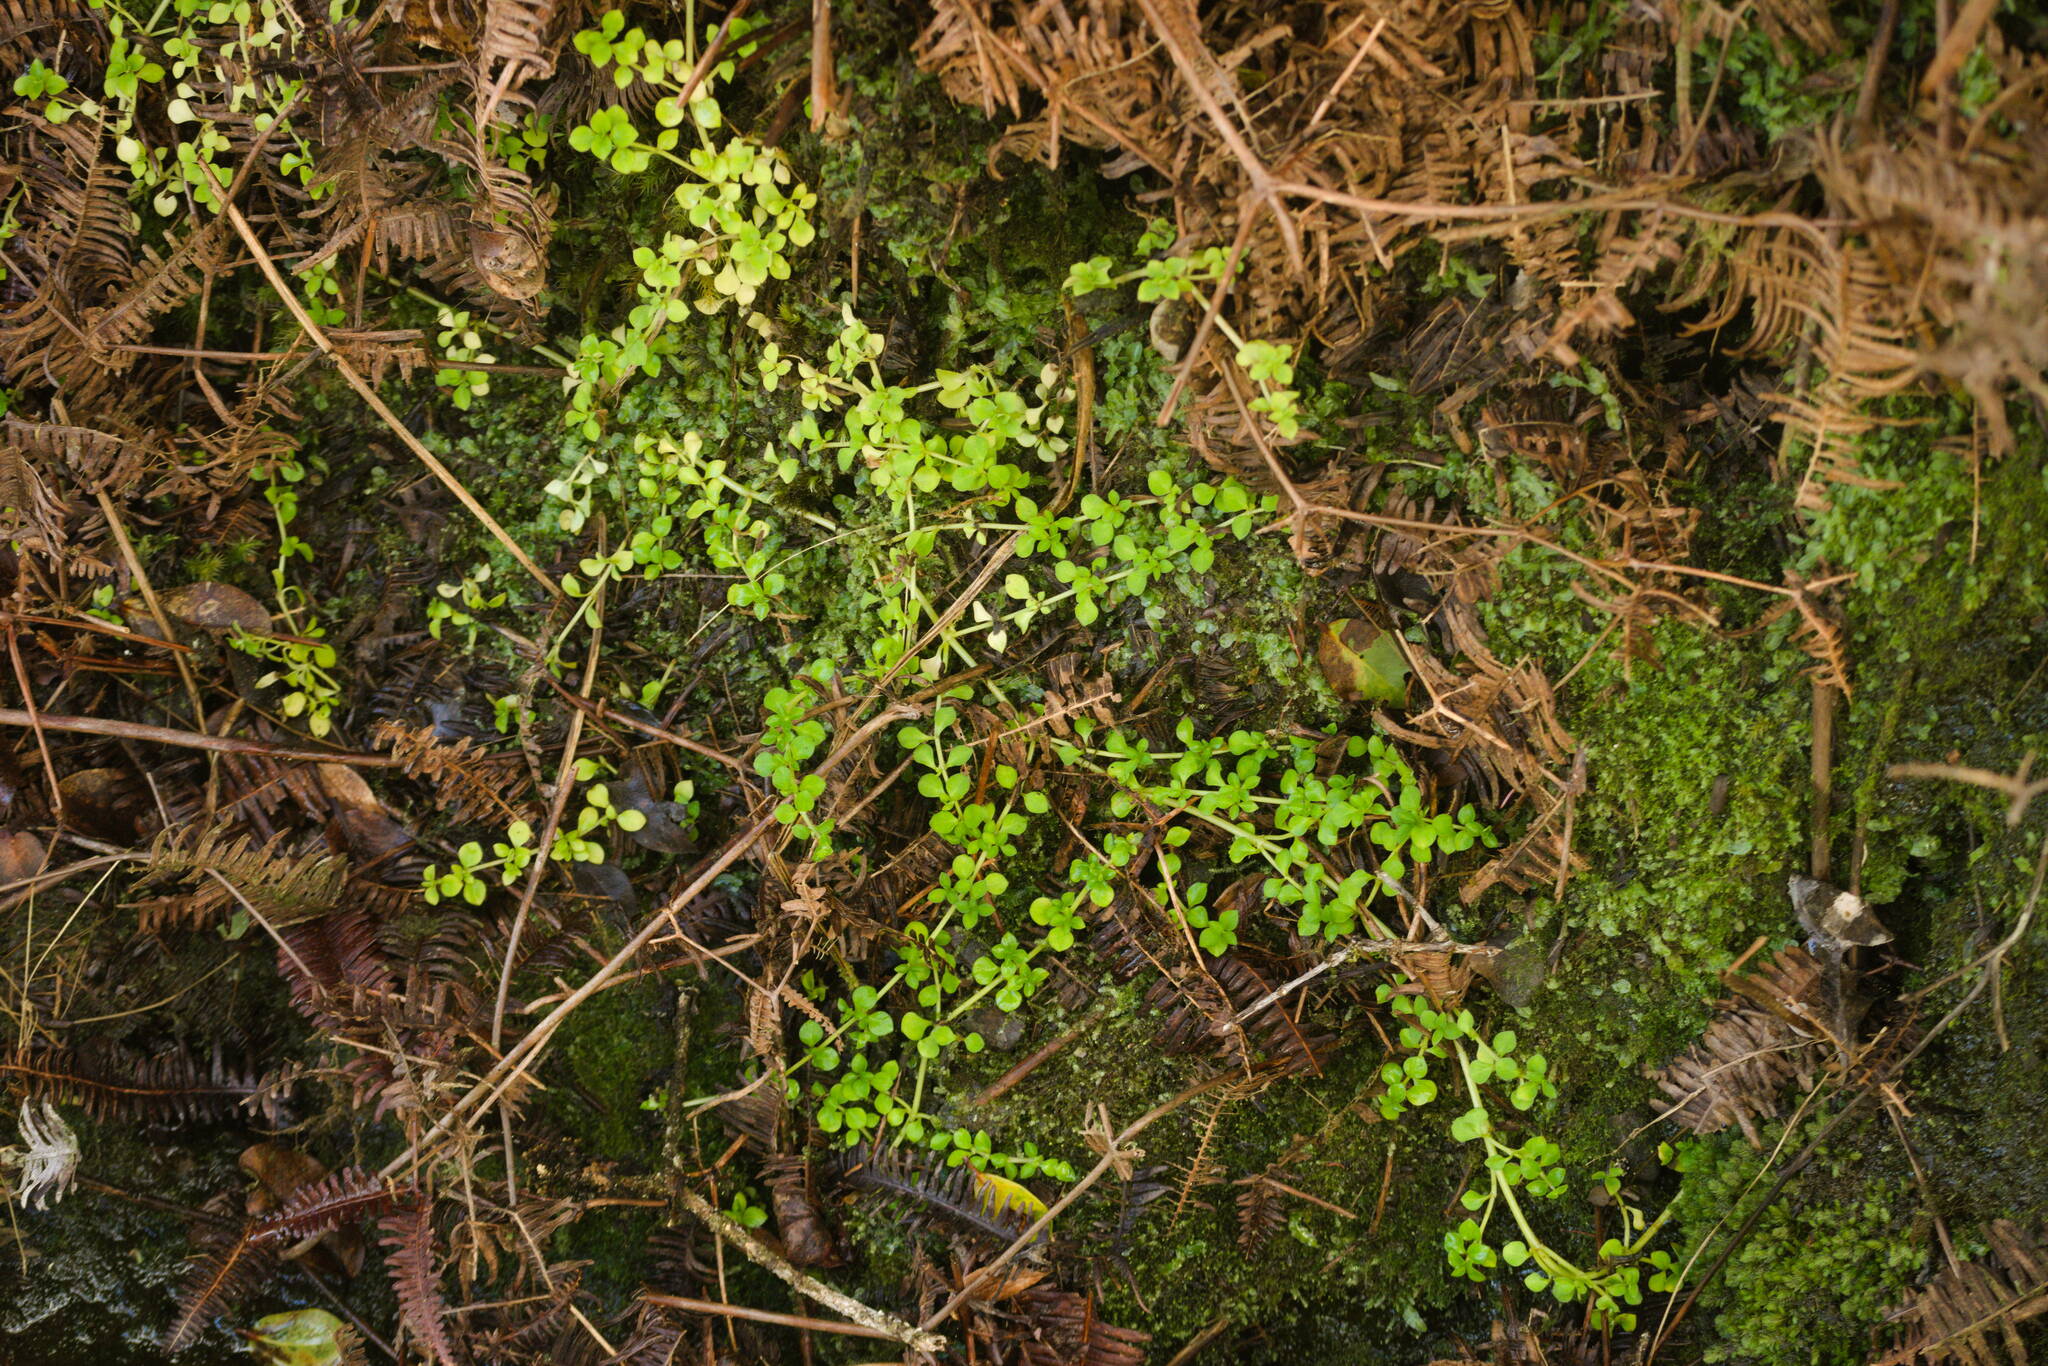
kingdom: Plantae
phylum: Tracheophyta
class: Magnoliopsida
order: Gentianales
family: Rubiaceae
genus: Nertera
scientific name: Nertera granadensis
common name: Beadplant
